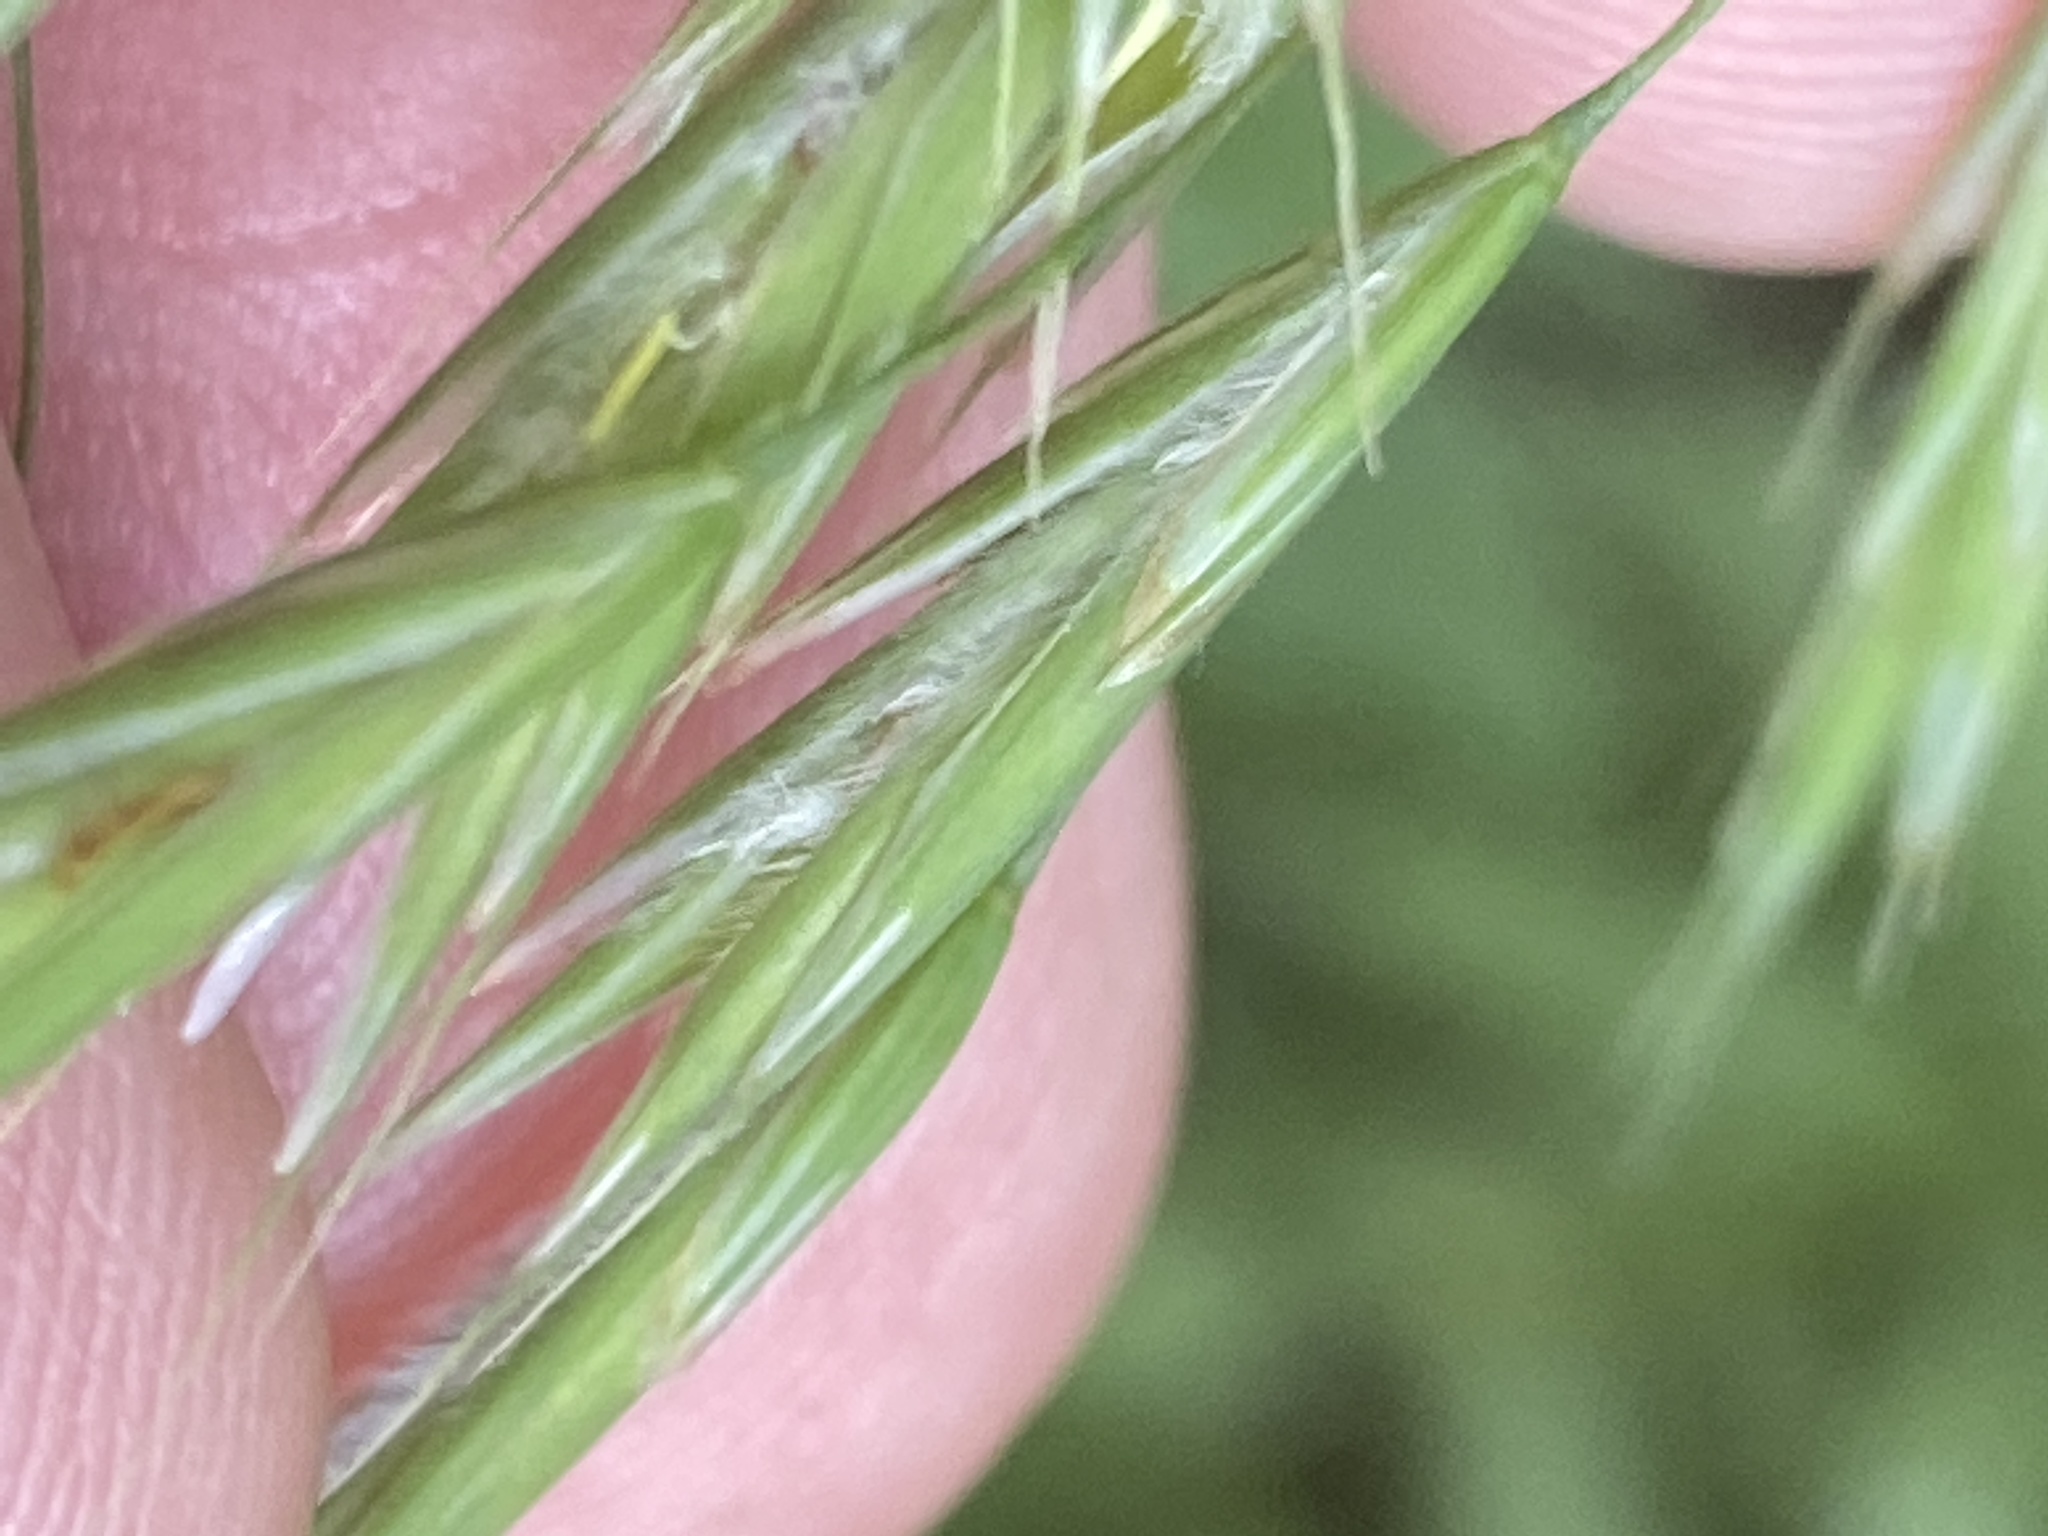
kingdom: Plantae
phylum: Tracheophyta
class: Liliopsida
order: Poales
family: Poaceae
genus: Bromus
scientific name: Bromus ciliatus
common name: Fringe brome
